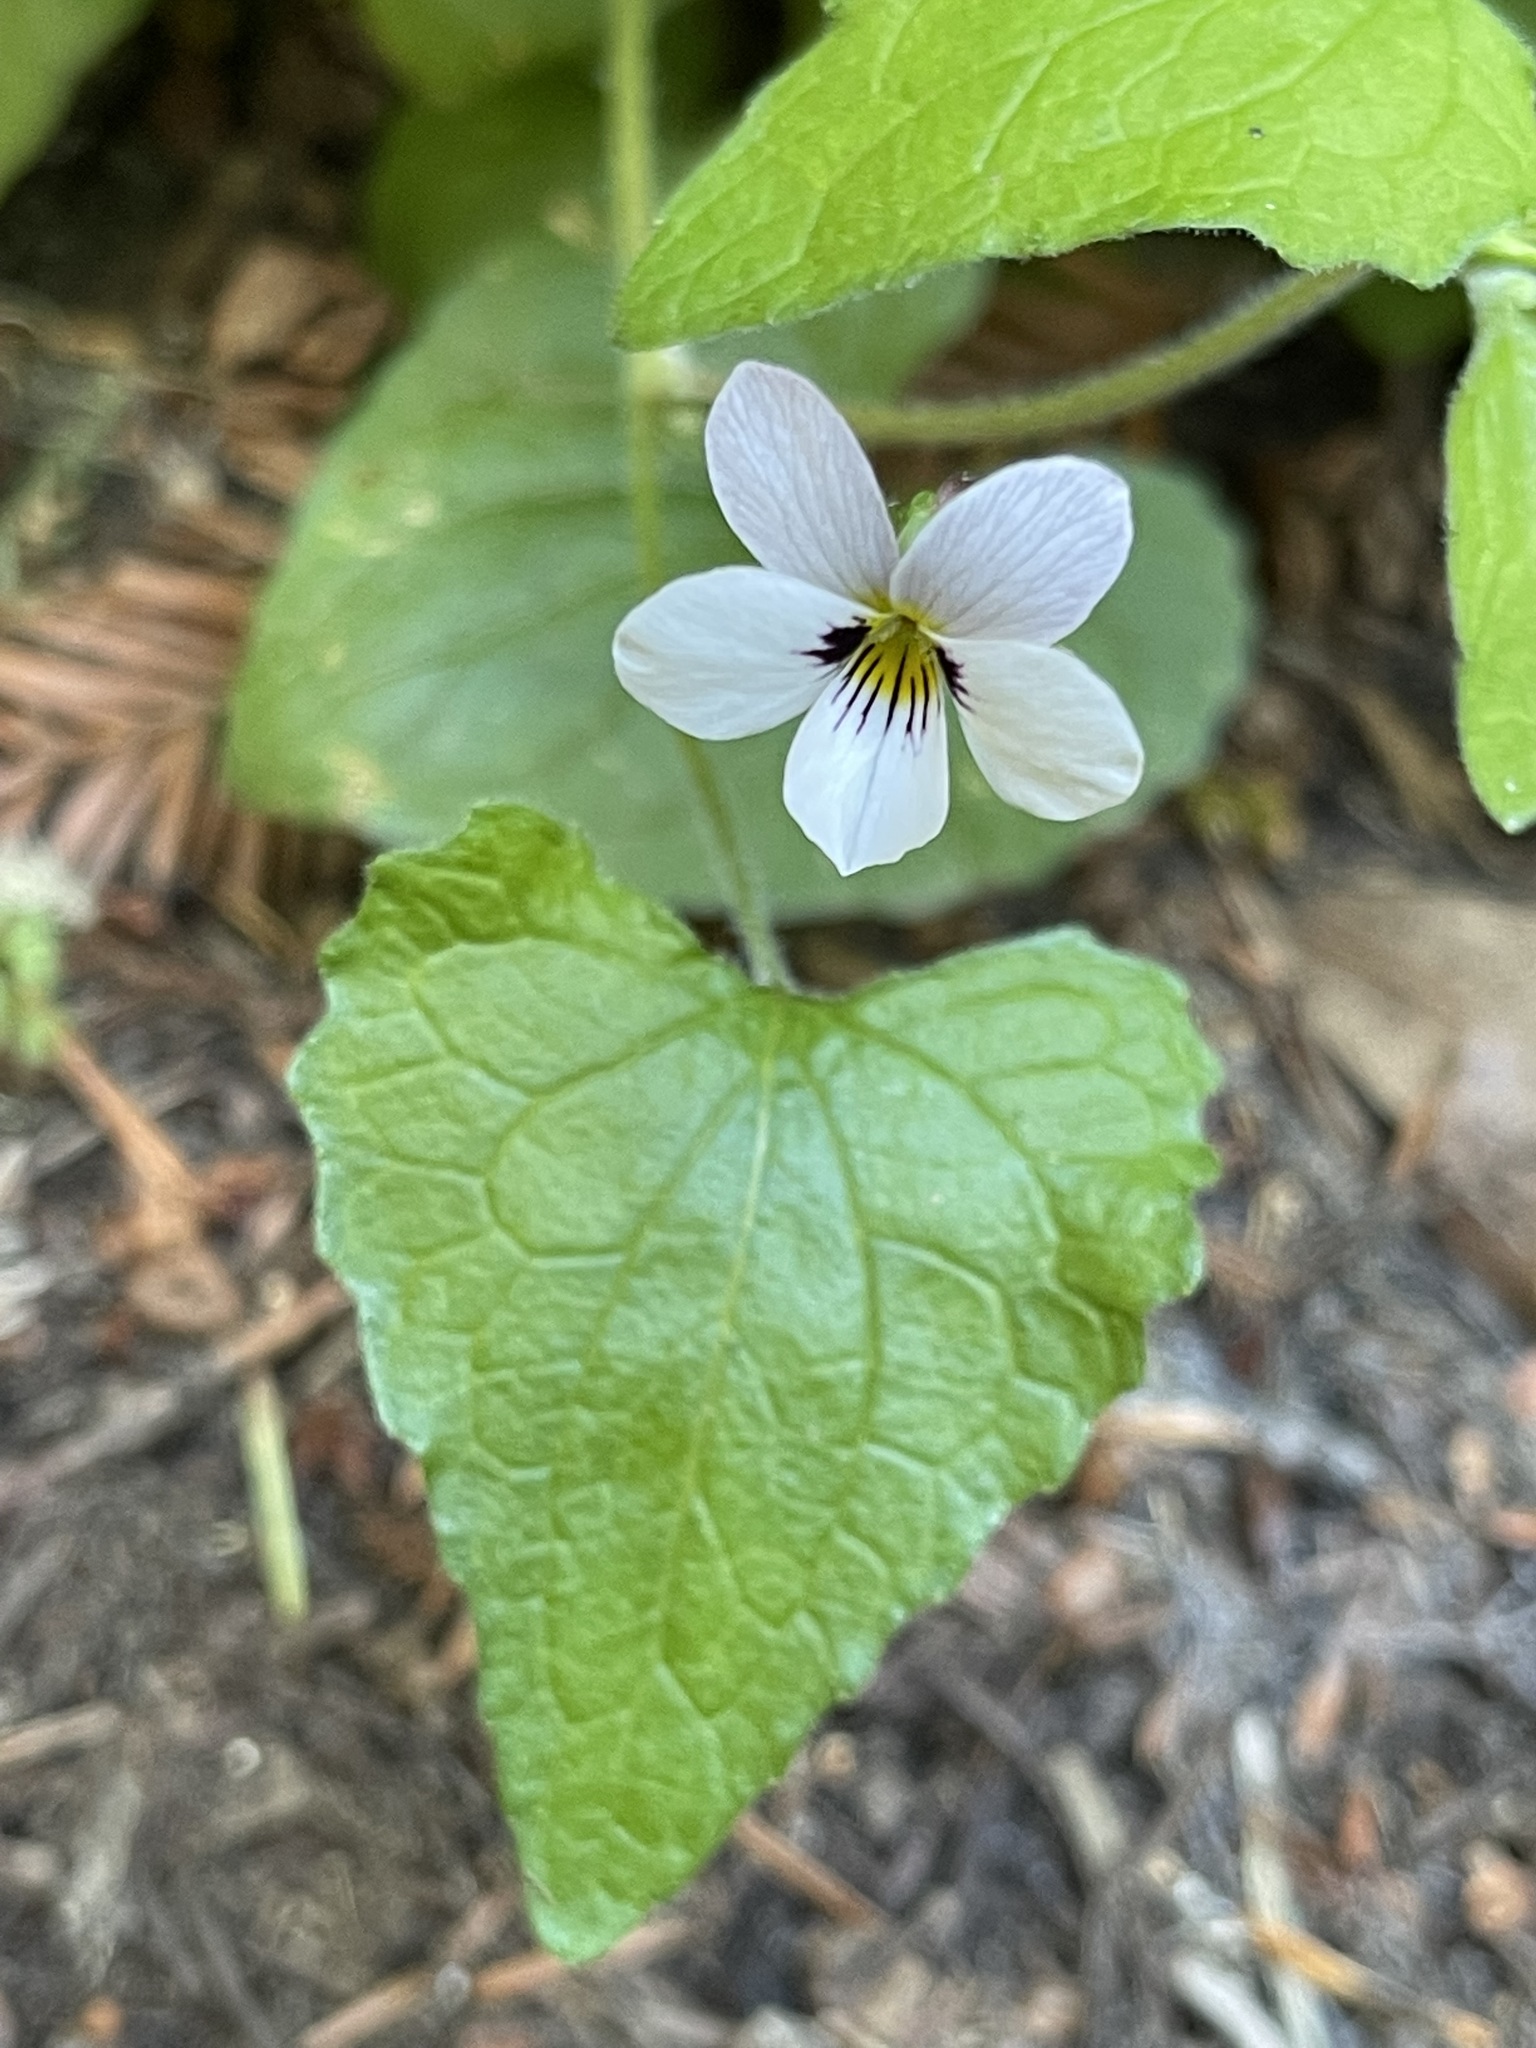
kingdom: Plantae
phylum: Tracheophyta
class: Magnoliopsida
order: Malpighiales
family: Violaceae
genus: Viola
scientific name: Viola ocellata
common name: Western heart's ease
